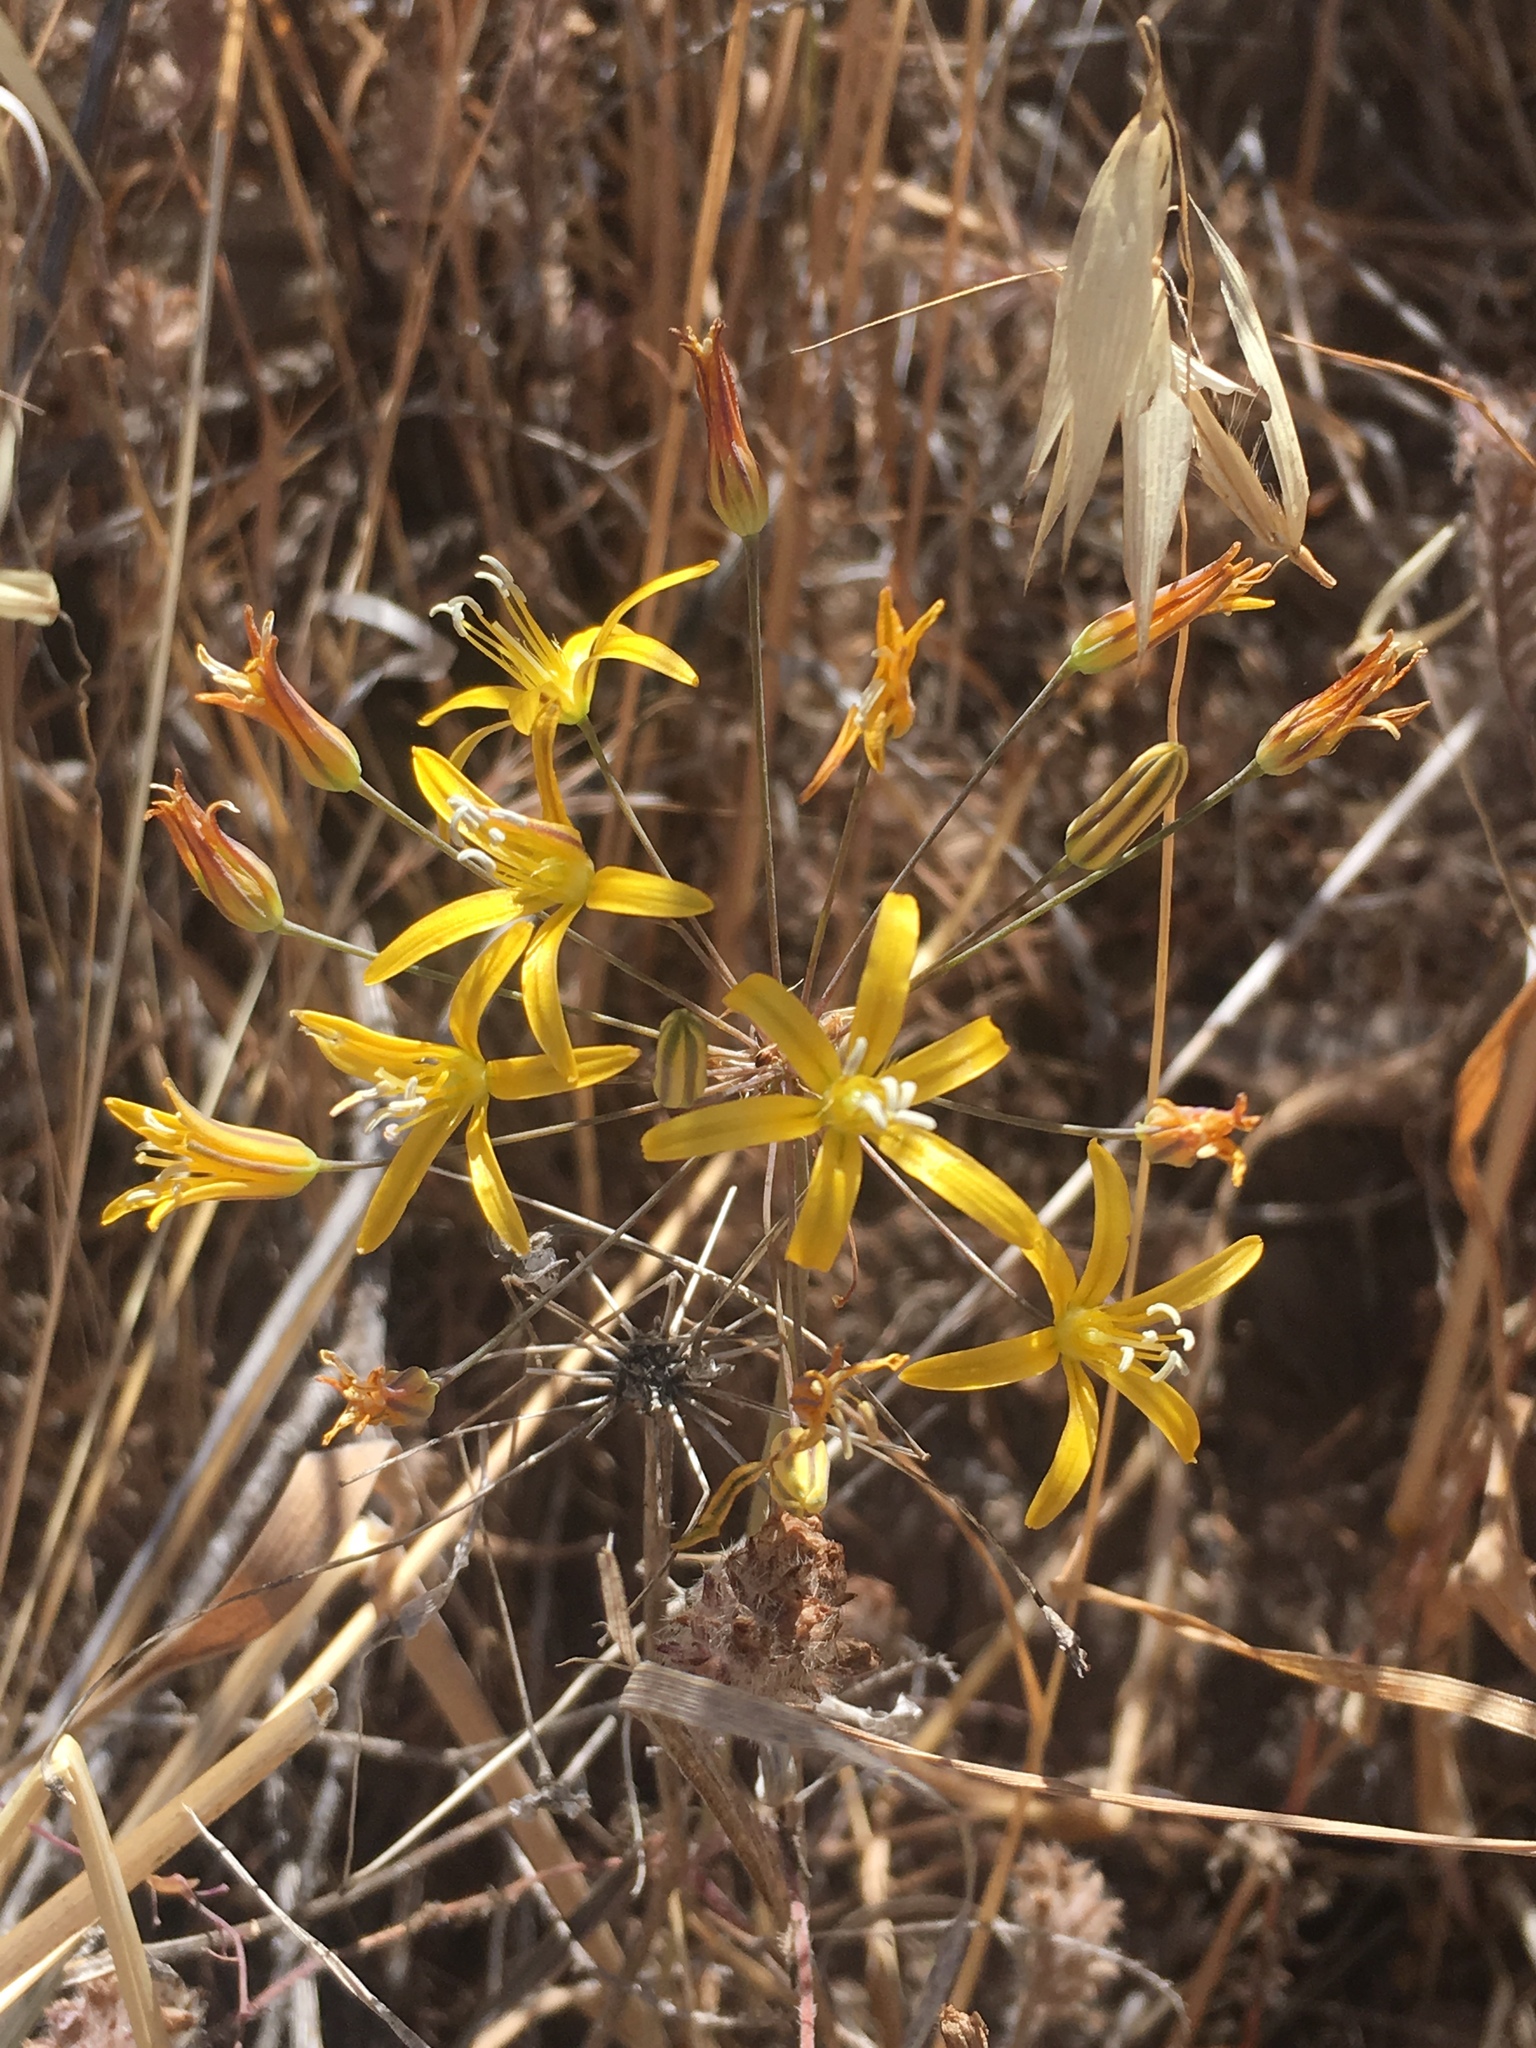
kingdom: Plantae
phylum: Tracheophyta
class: Liliopsida
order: Asparagales
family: Asparagaceae
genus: Bloomeria
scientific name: Bloomeria crocea
